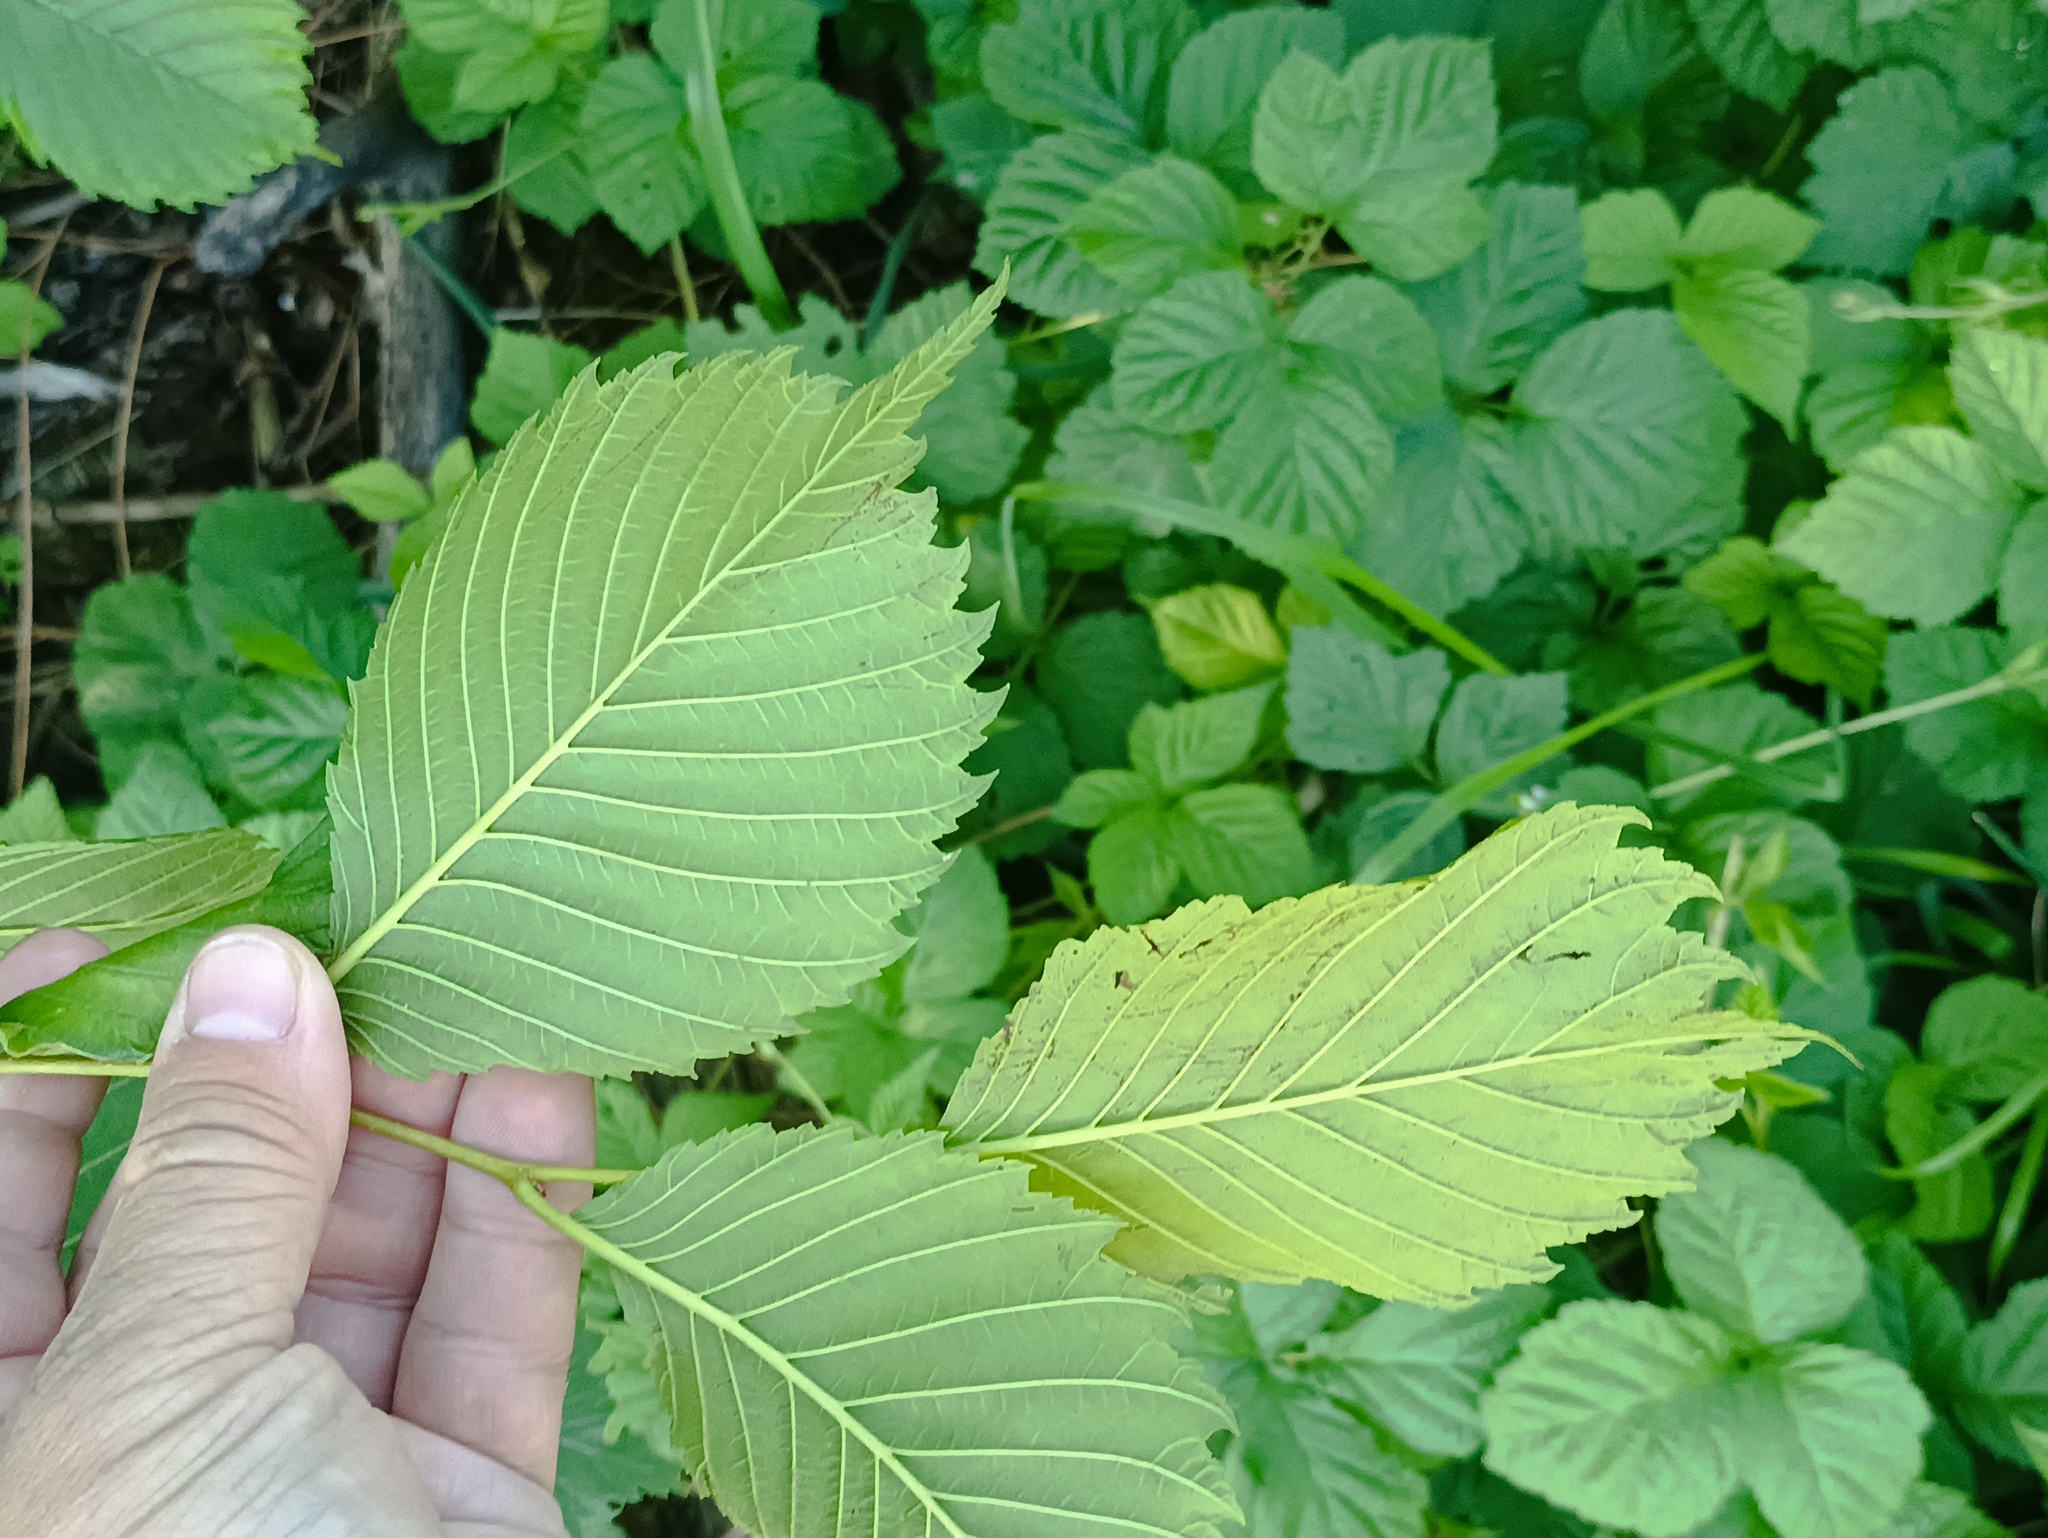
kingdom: Plantae
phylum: Tracheophyta
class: Magnoliopsida
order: Rosales
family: Ulmaceae
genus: Ulmus
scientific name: Ulmus laevis
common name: European white-elm
